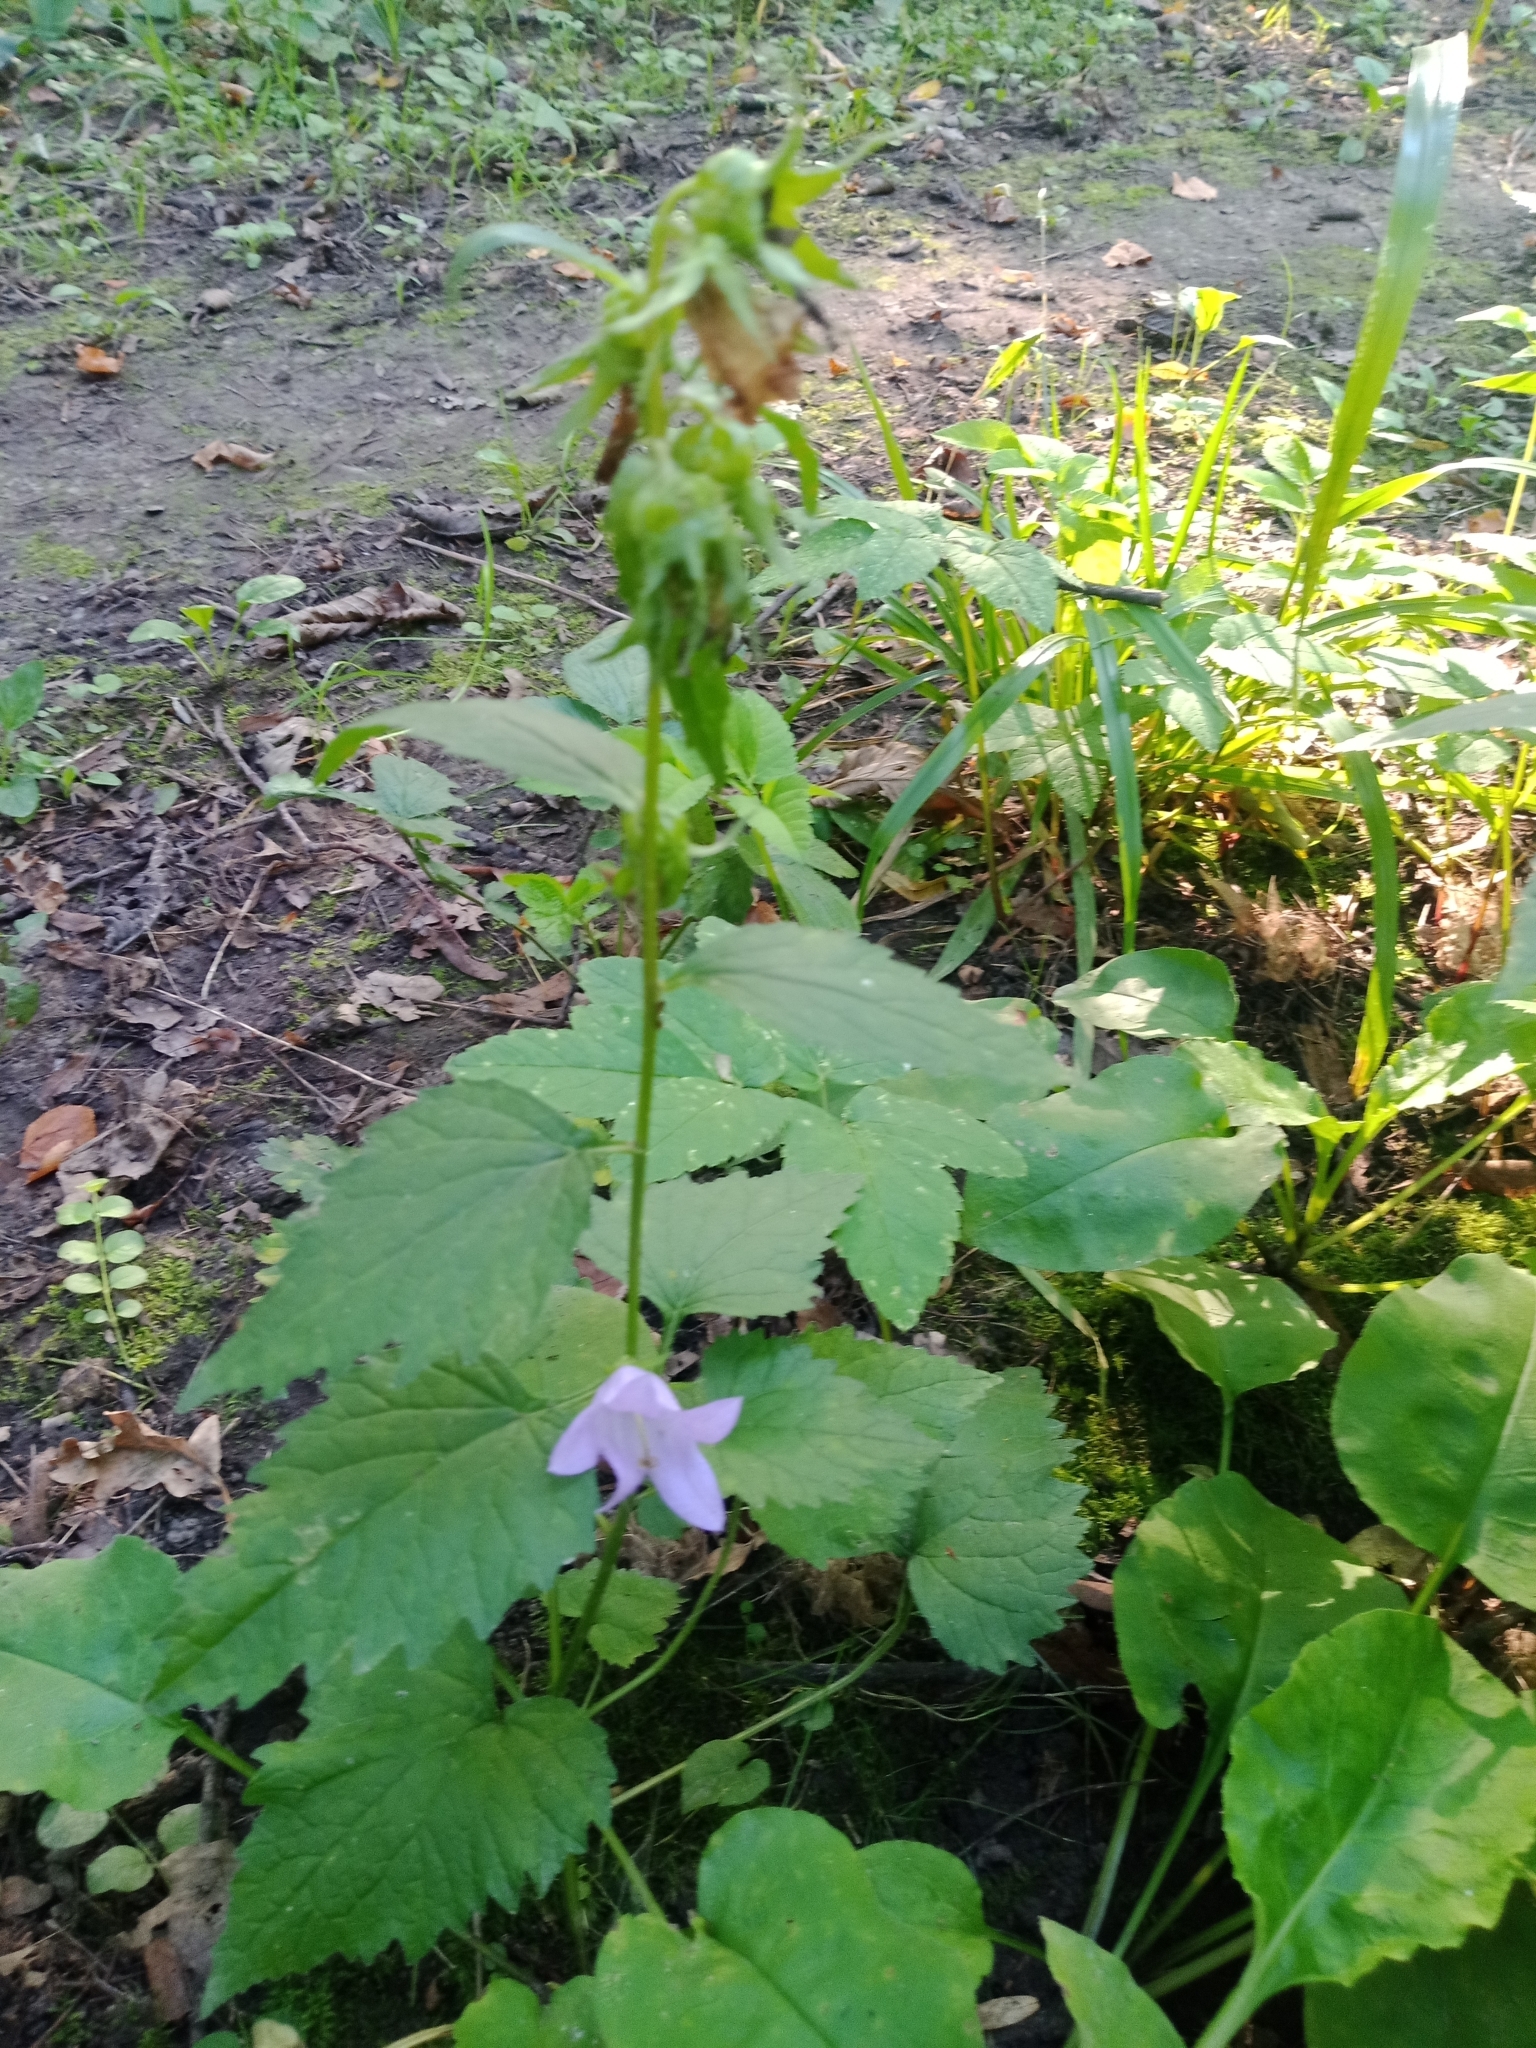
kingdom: Plantae
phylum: Tracheophyta
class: Magnoliopsida
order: Asterales
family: Campanulaceae
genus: Campanula
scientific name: Campanula trachelium
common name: Nettle-leaved bellflower
